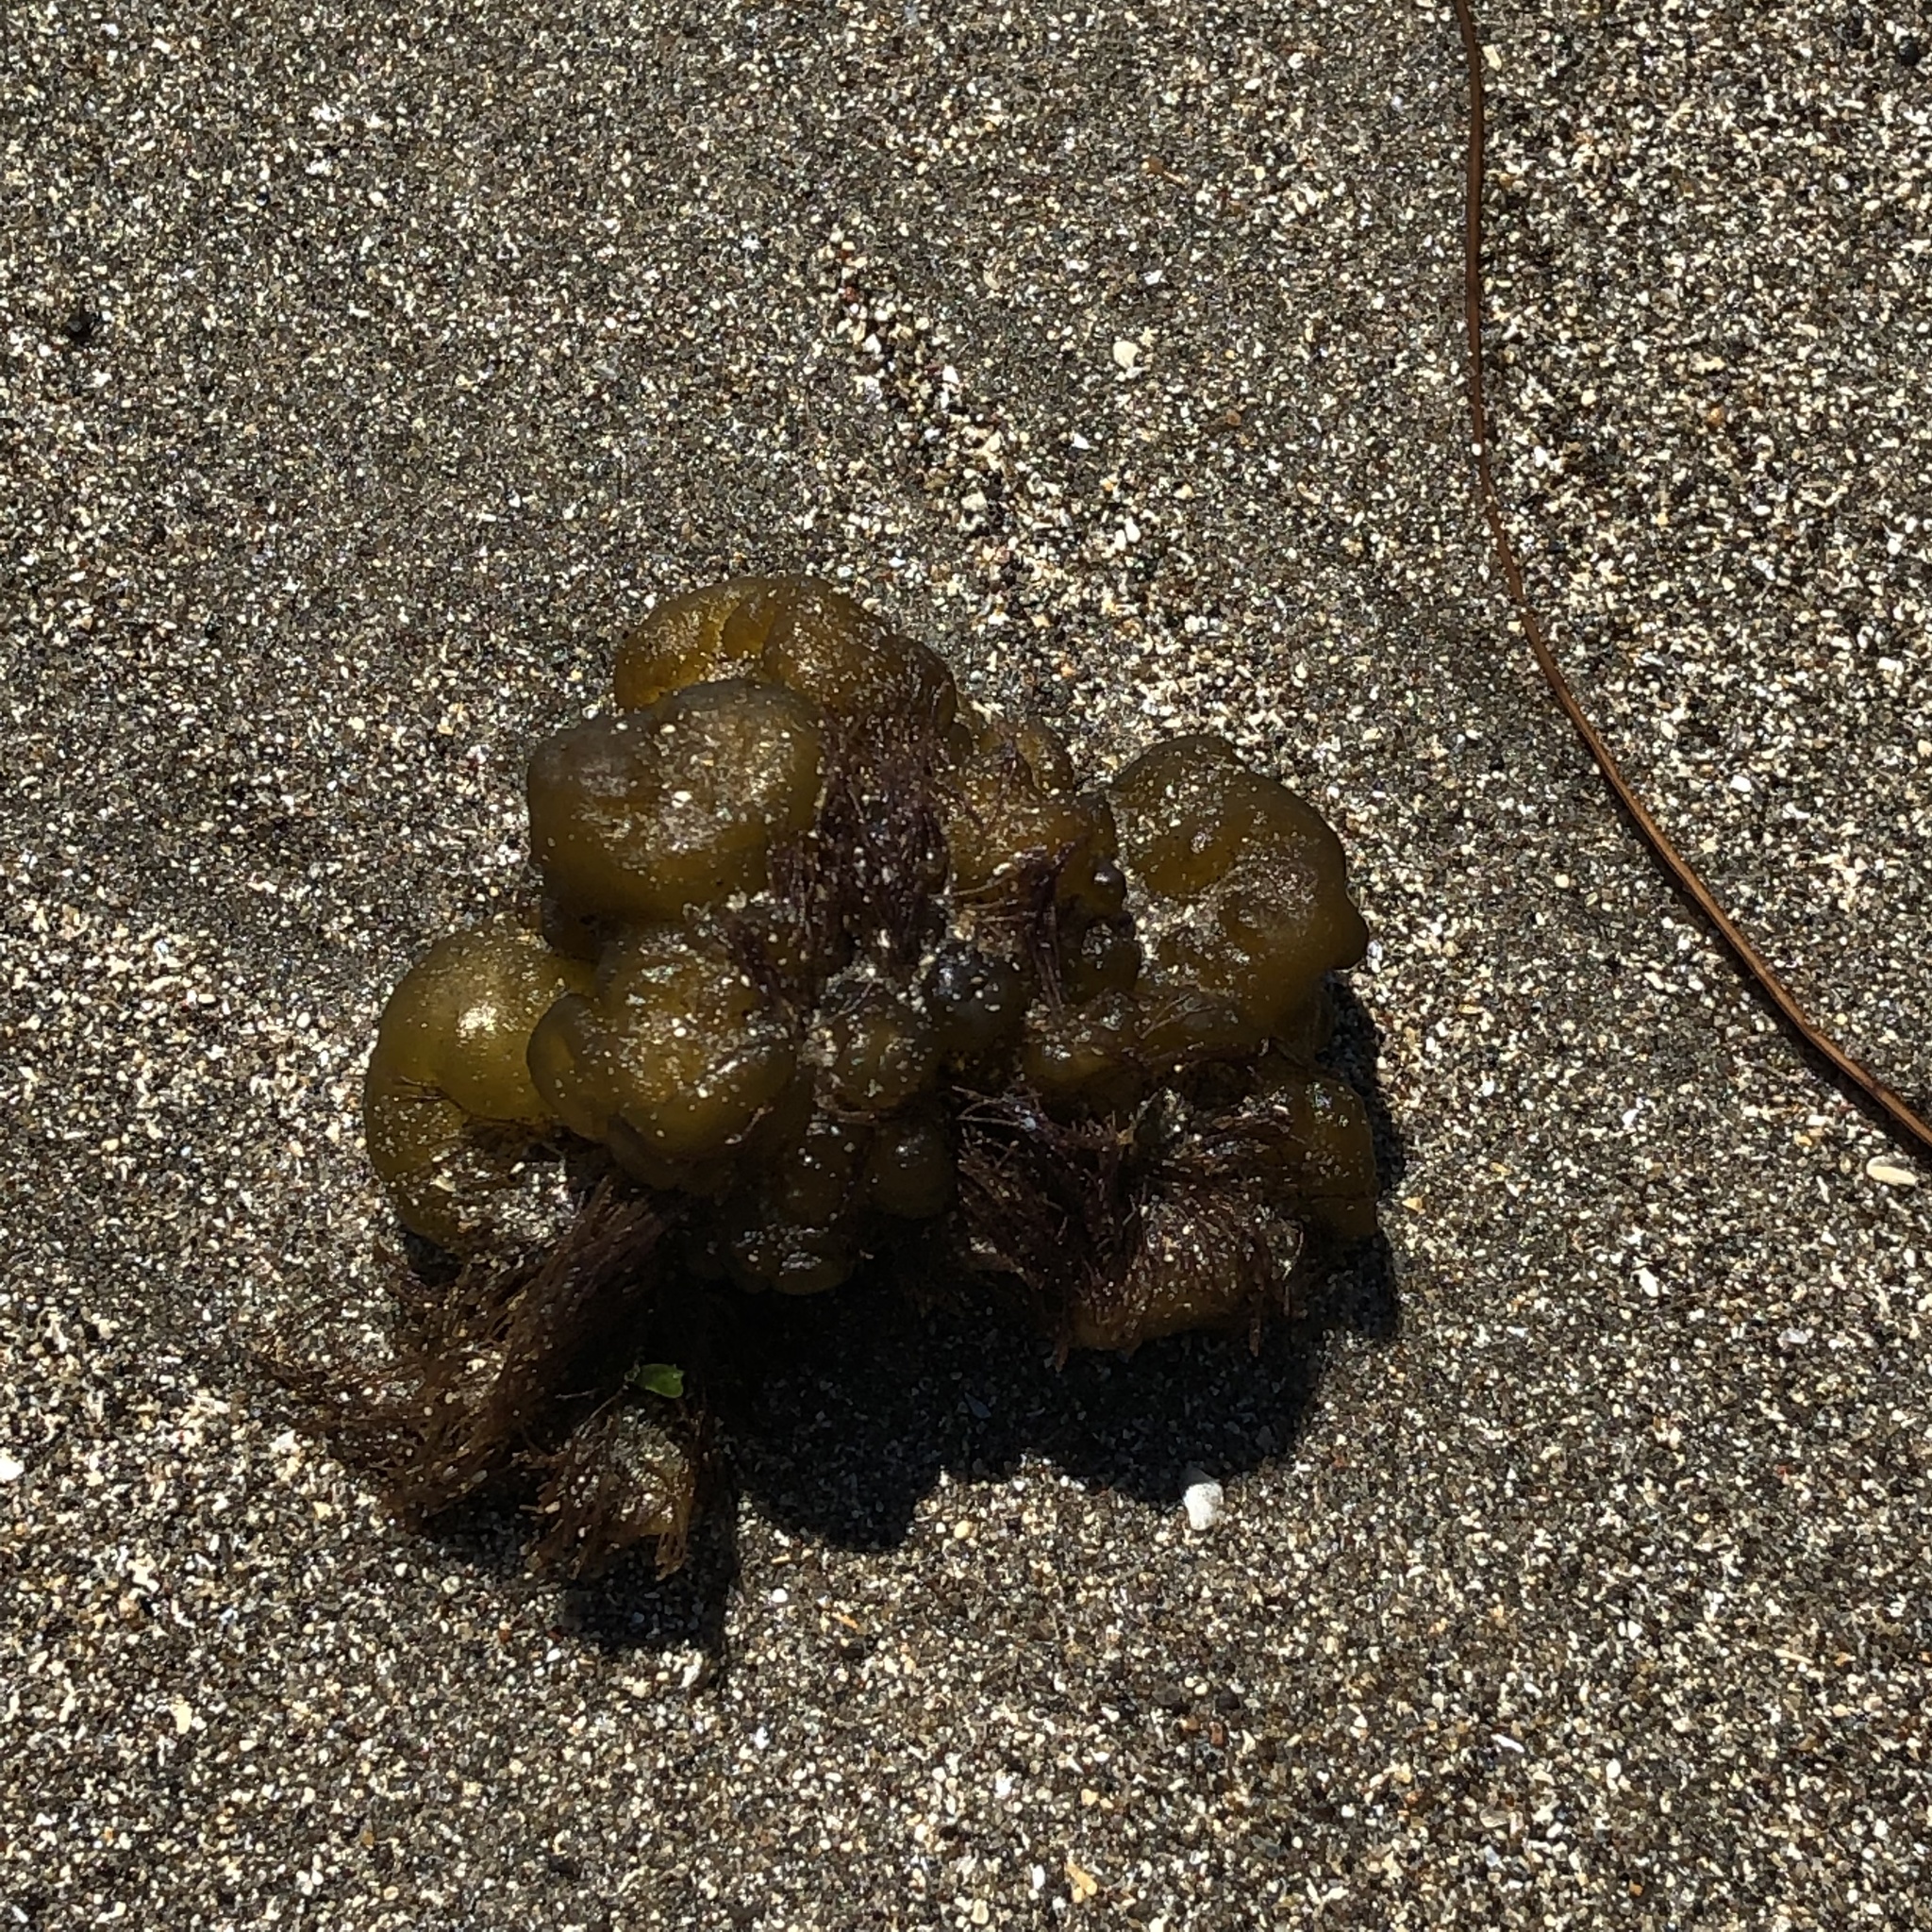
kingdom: Chromista
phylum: Ochrophyta
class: Phaeophyceae
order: Ectocarpales
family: Chordariaceae
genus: Leathesia
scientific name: Leathesia marina
